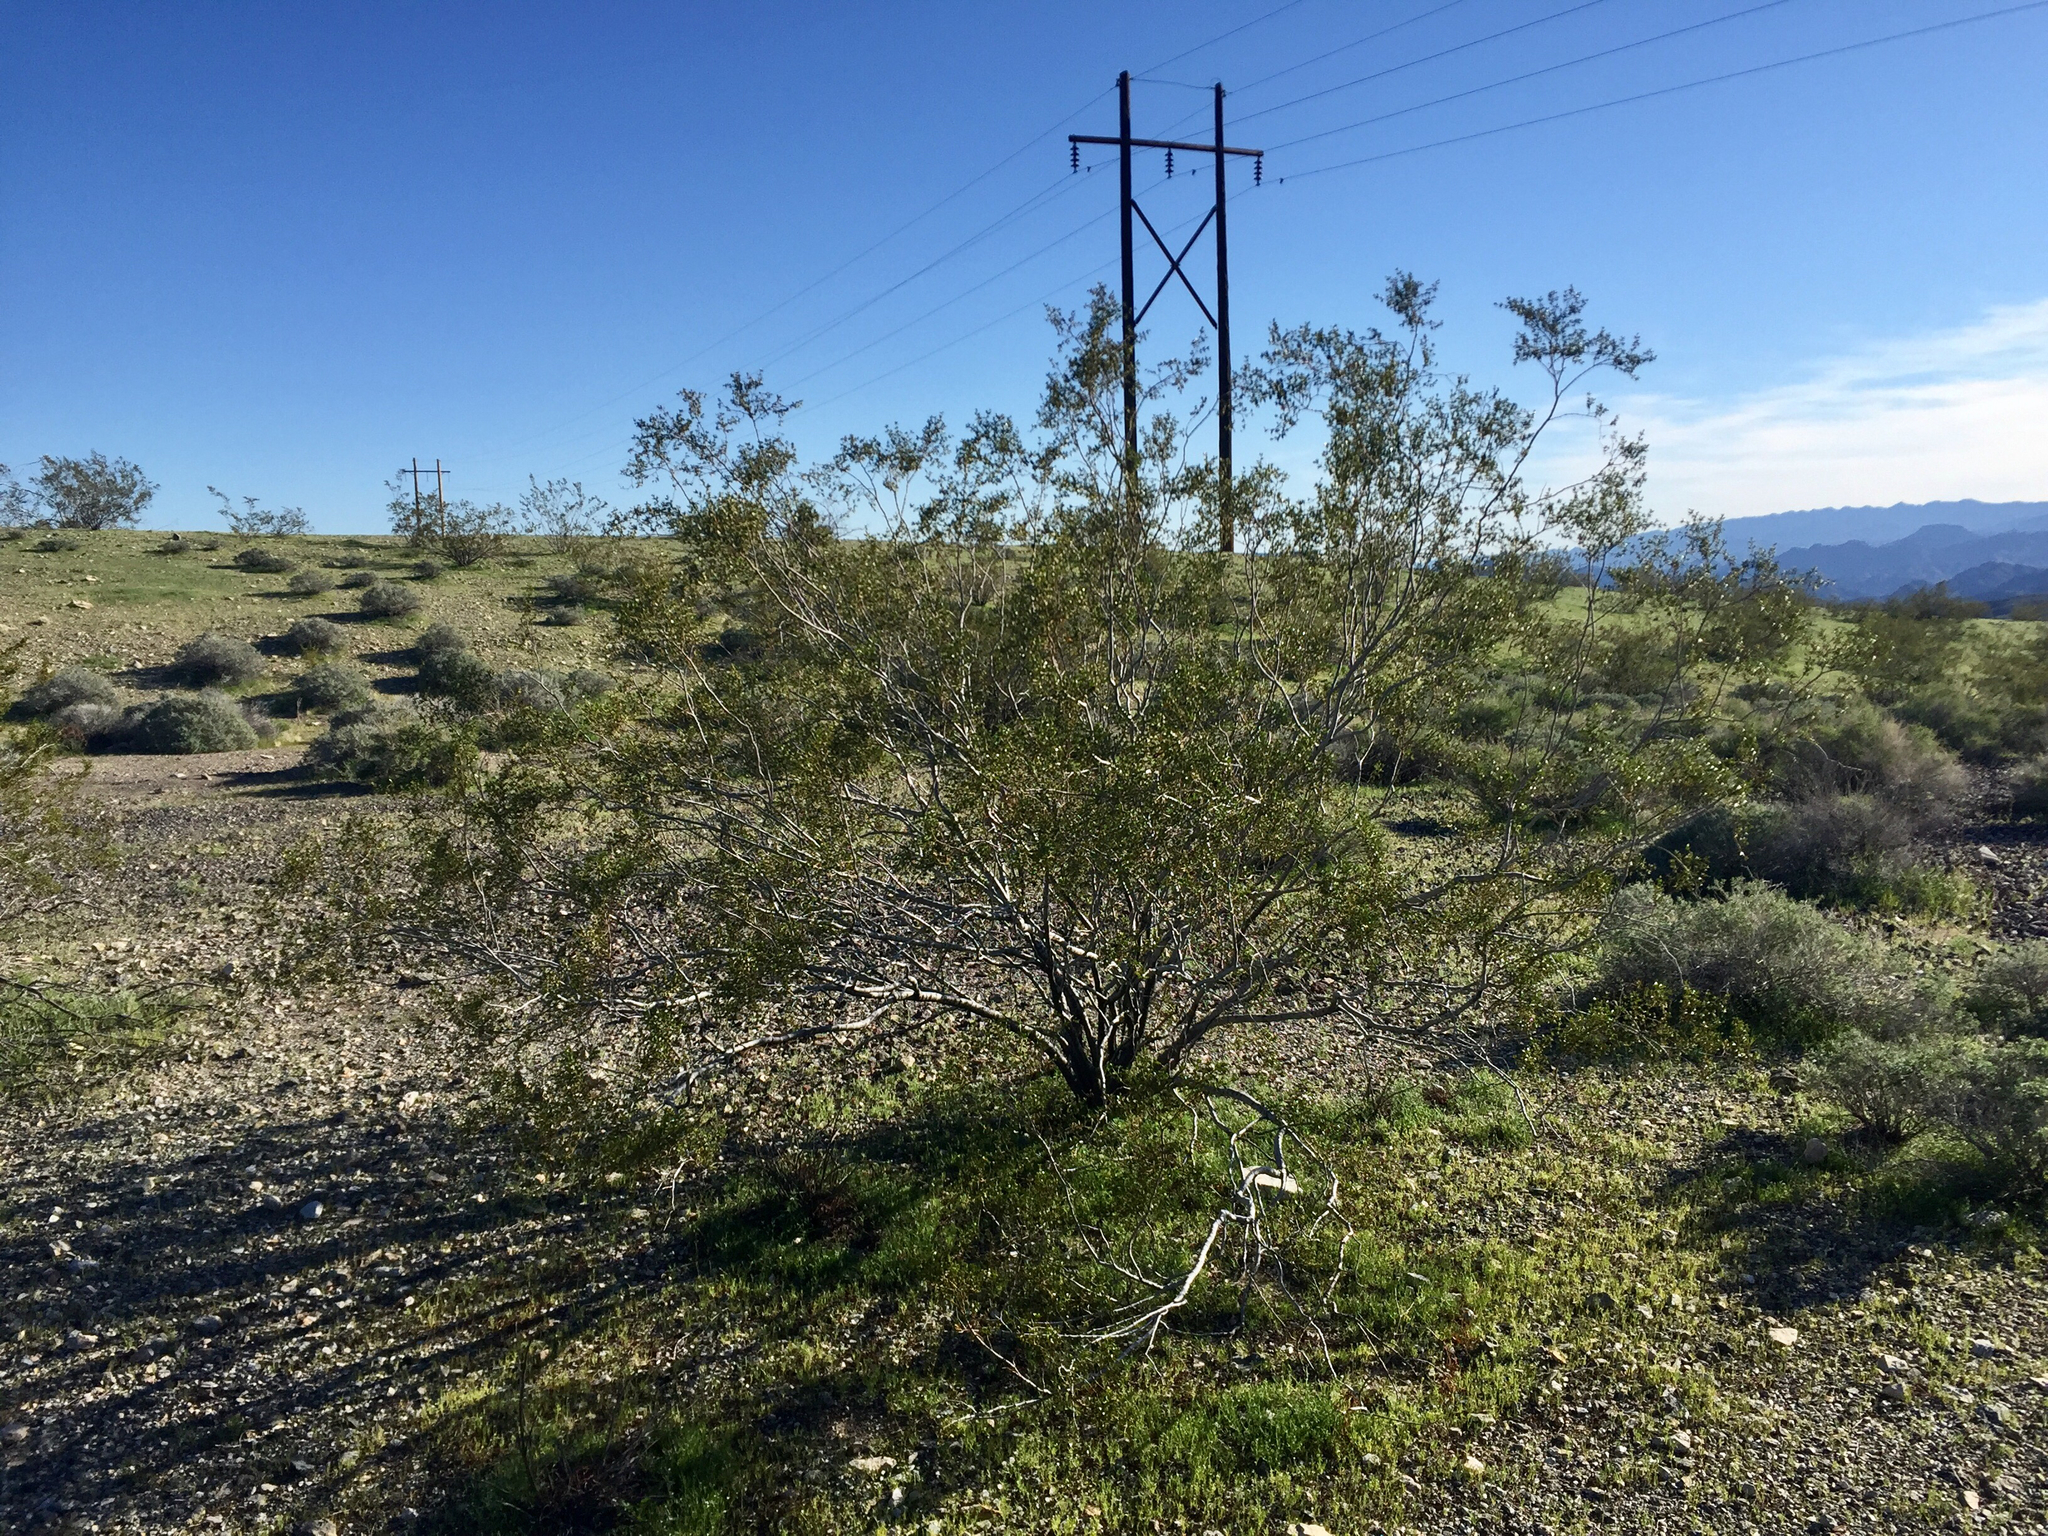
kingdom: Plantae
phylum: Tracheophyta
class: Magnoliopsida
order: Zygophyllales
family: Zygophyllaceae
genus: Larrea
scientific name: Larrea tridentata
